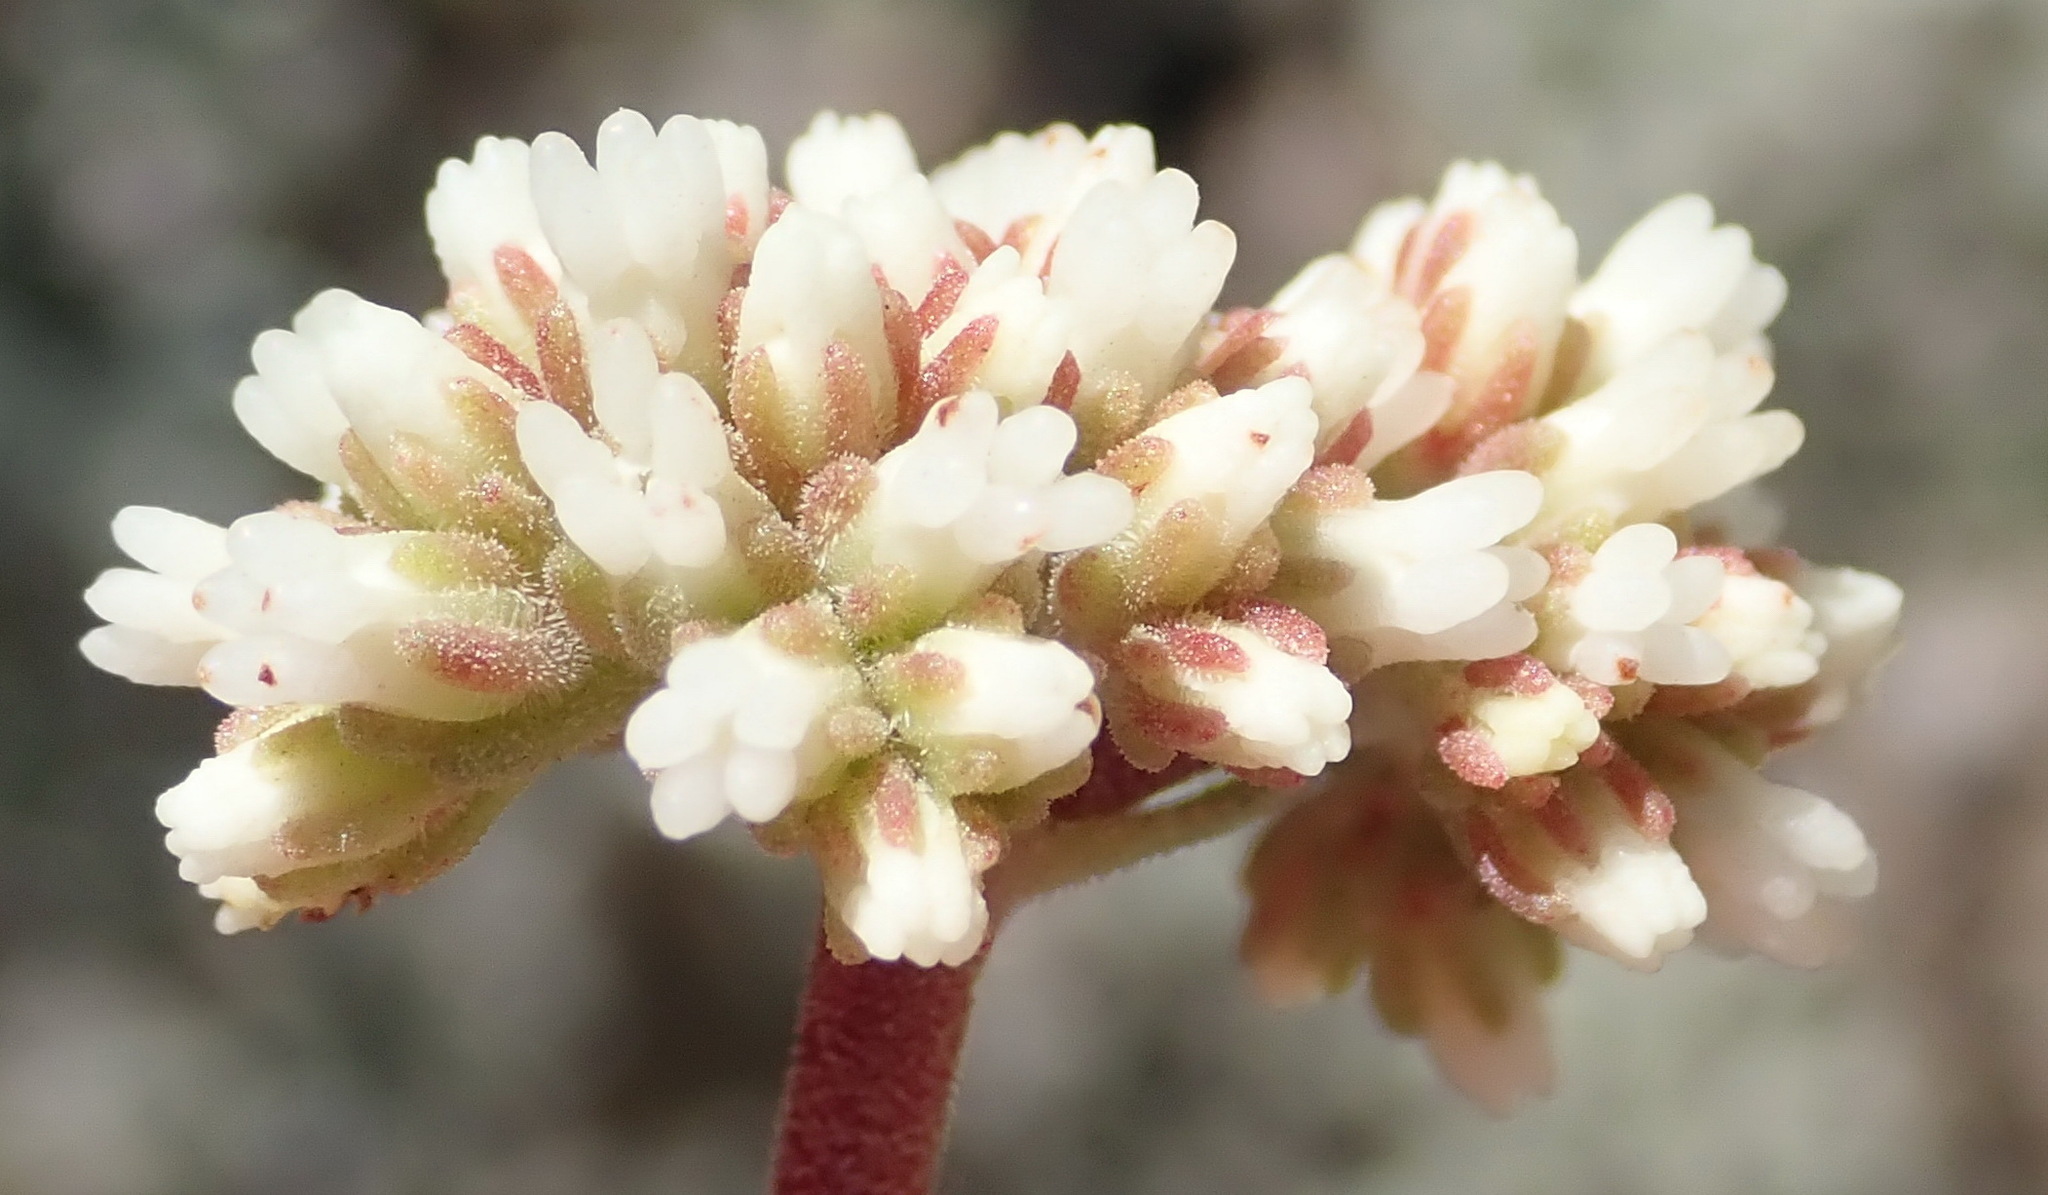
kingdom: Plantae
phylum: Tracheophyta
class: Magnoliopsida
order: Saxifragales
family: Crassulaceae
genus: Crassula
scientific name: Crassula pubescens
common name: Jersey pigmyweed
